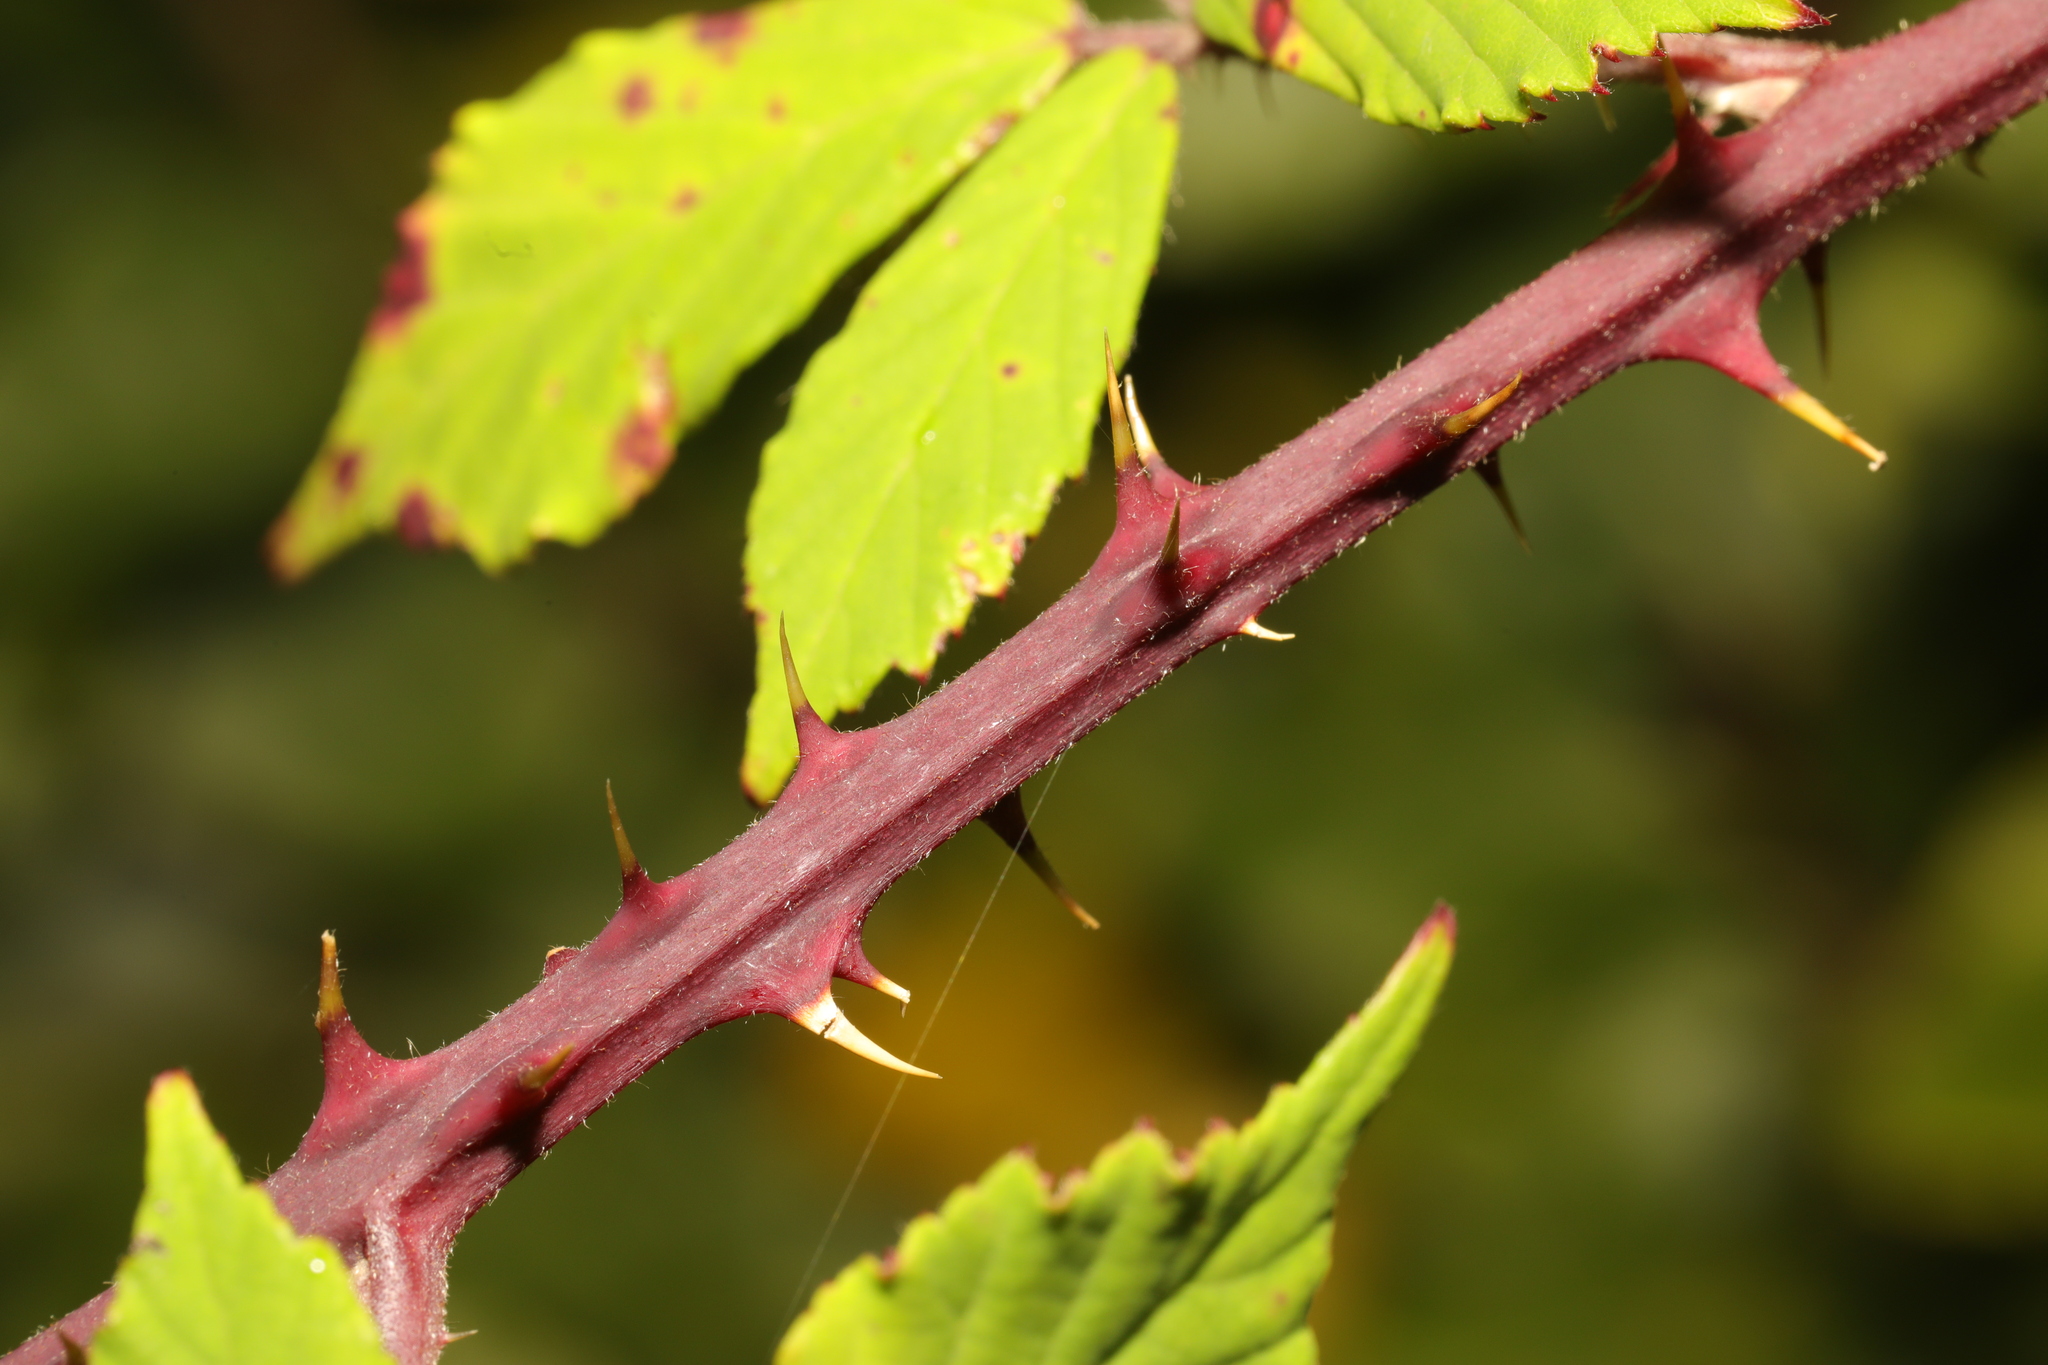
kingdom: Plantae
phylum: Tracheophyta
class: Magnoliopsida
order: Rosales
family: Rosaceae
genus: Rubus
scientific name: Rubus lindleyanus
